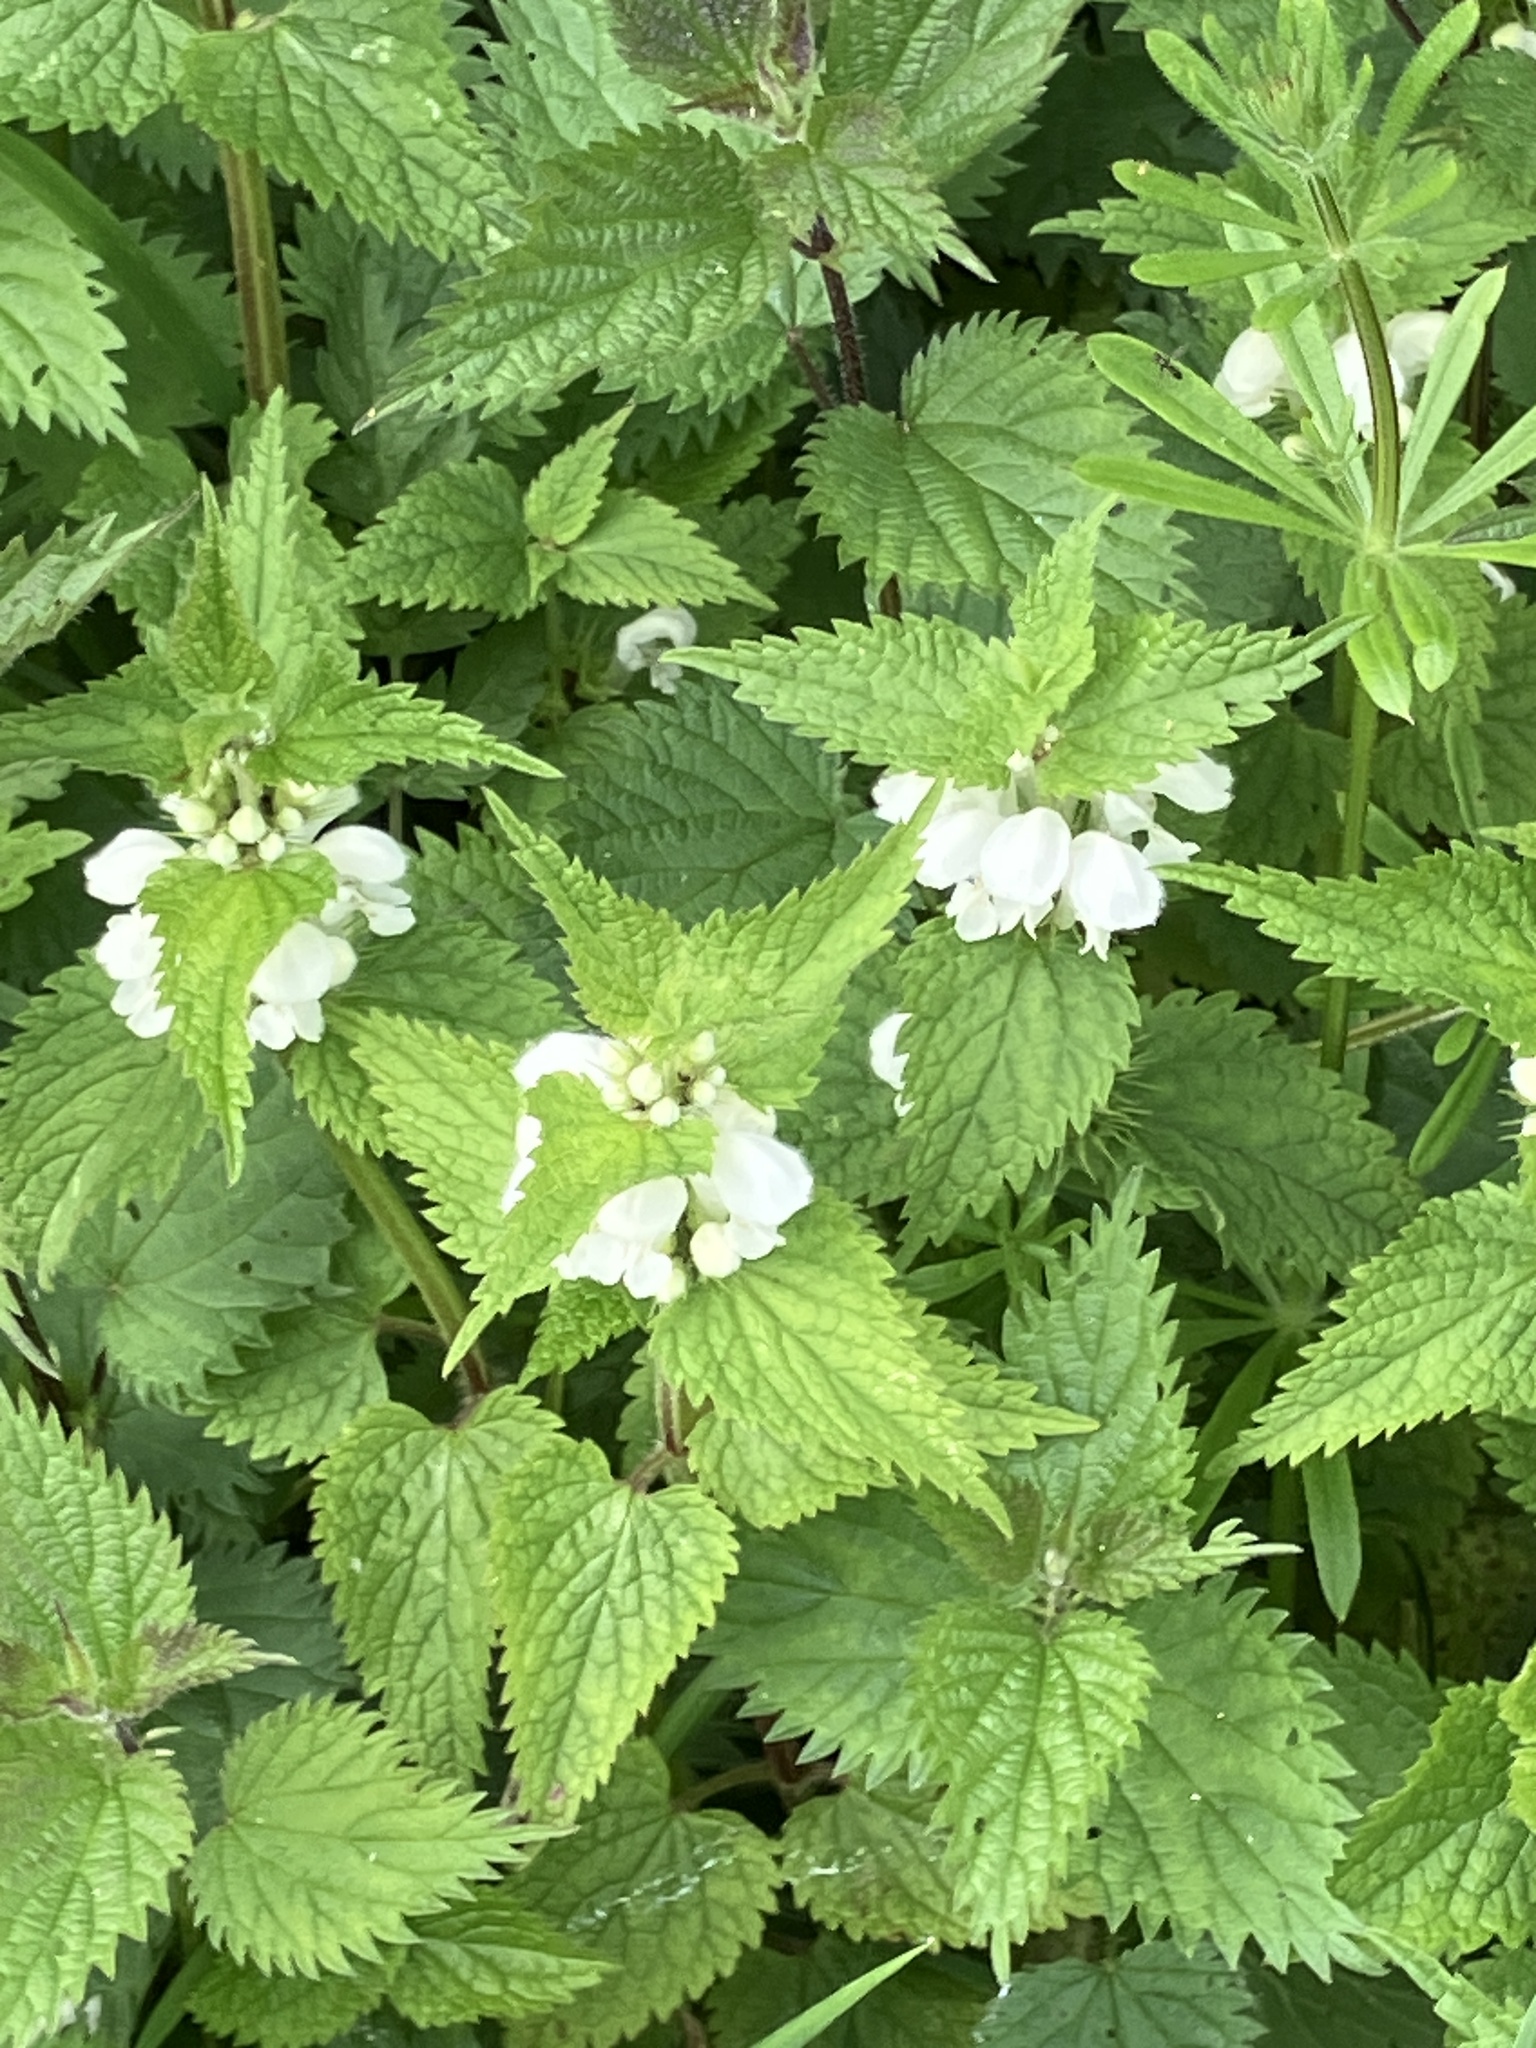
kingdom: Plantae
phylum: Tracheophyta
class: Magnoliopsida
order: Lamiales
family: Lamiaceae
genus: Lamium
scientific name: Lamium album
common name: White dead-nettle
